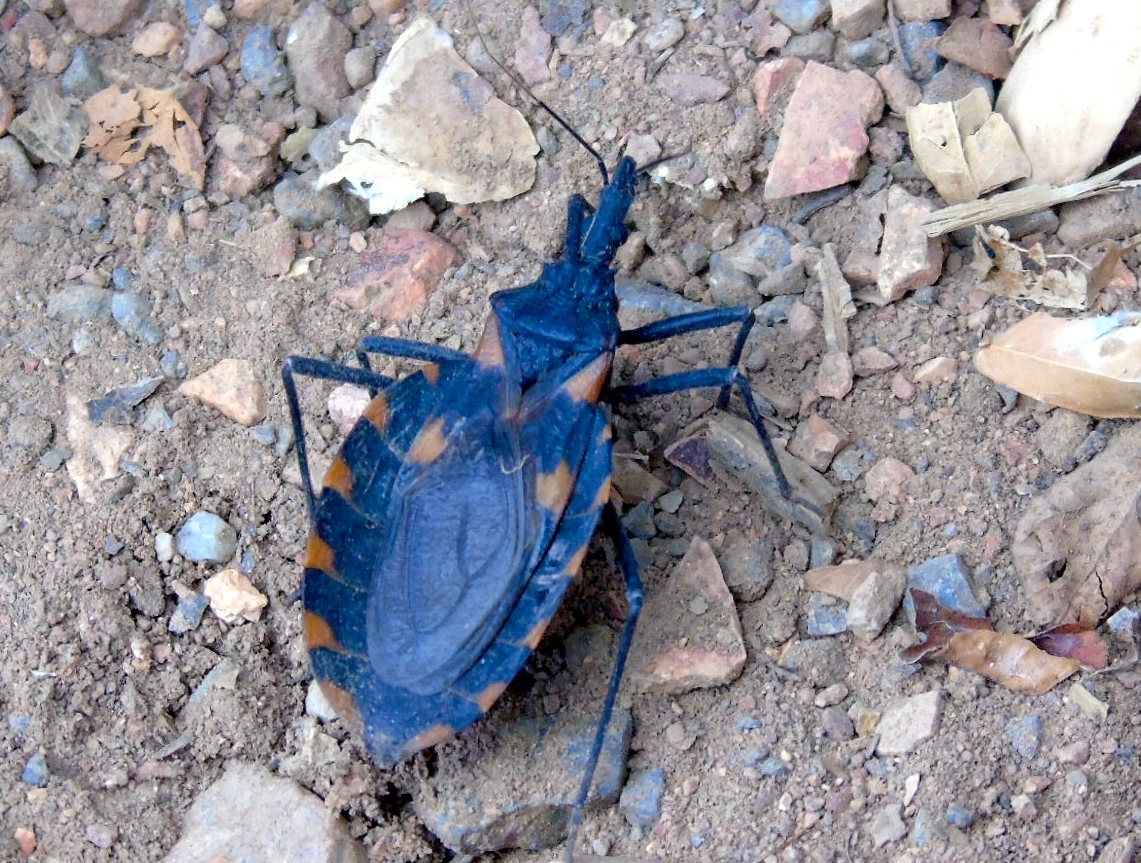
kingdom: Animalia
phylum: Arthropoda
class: Insecta
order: Hemiptera
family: Reduviidae
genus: Meccus
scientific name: Meccus longipennis
